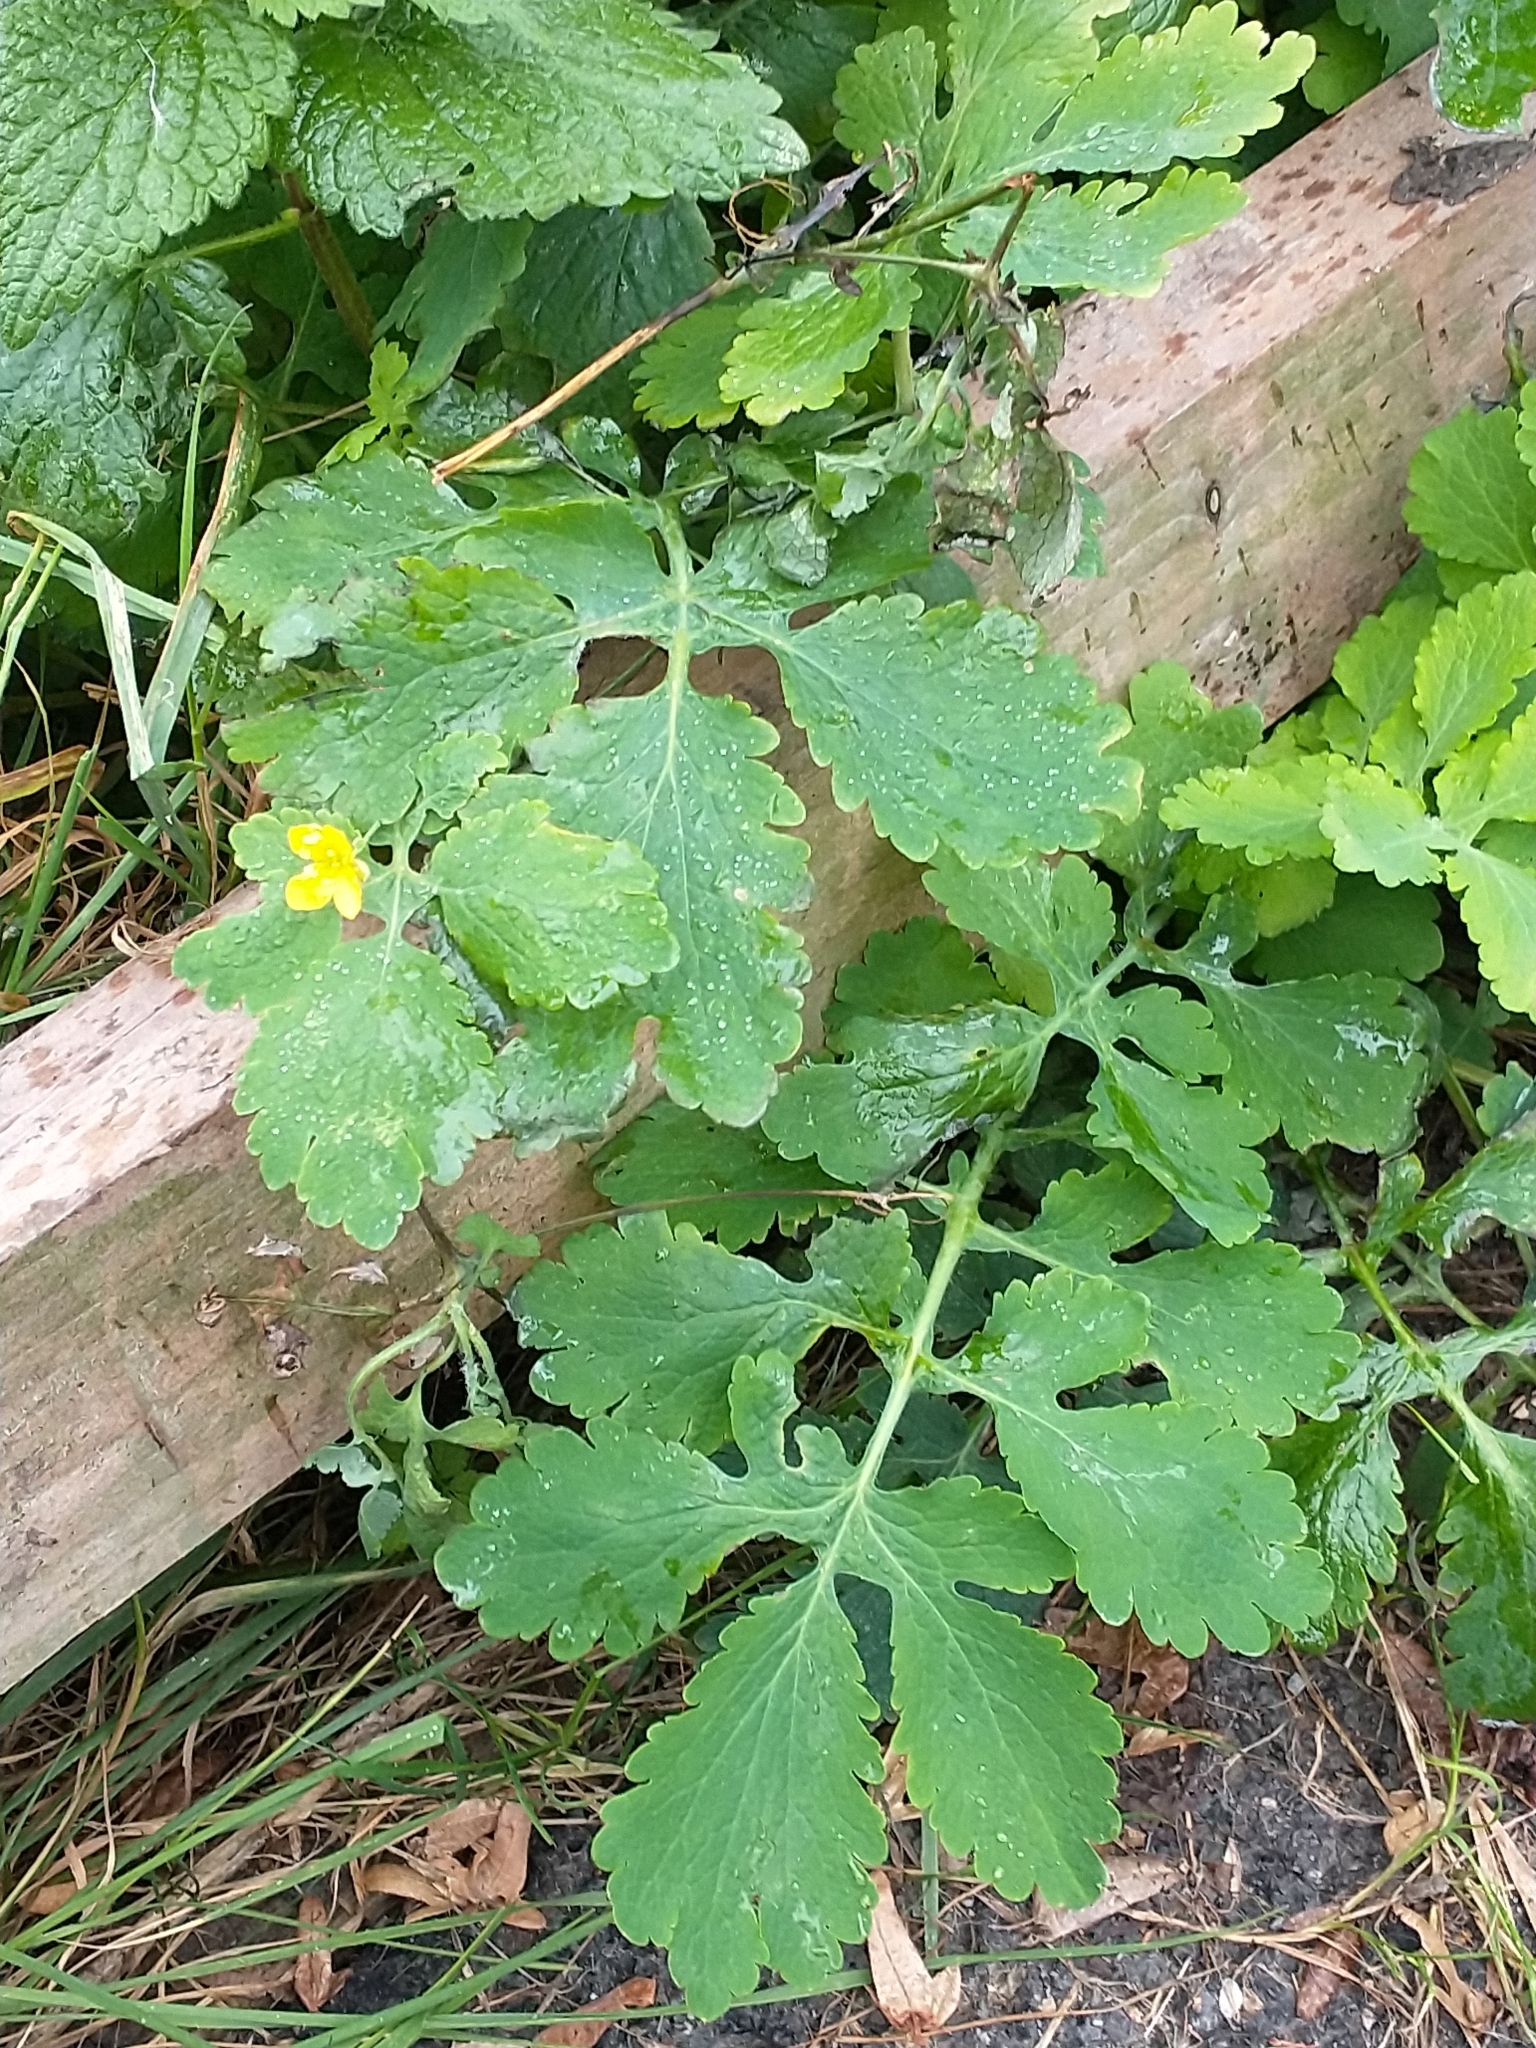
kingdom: Plantae
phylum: Tracheophyta
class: Magnoliopsida
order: Ranunculales
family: Papaveraceae
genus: Chelidonium
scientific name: Chelidonium majus
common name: Greater celandine
